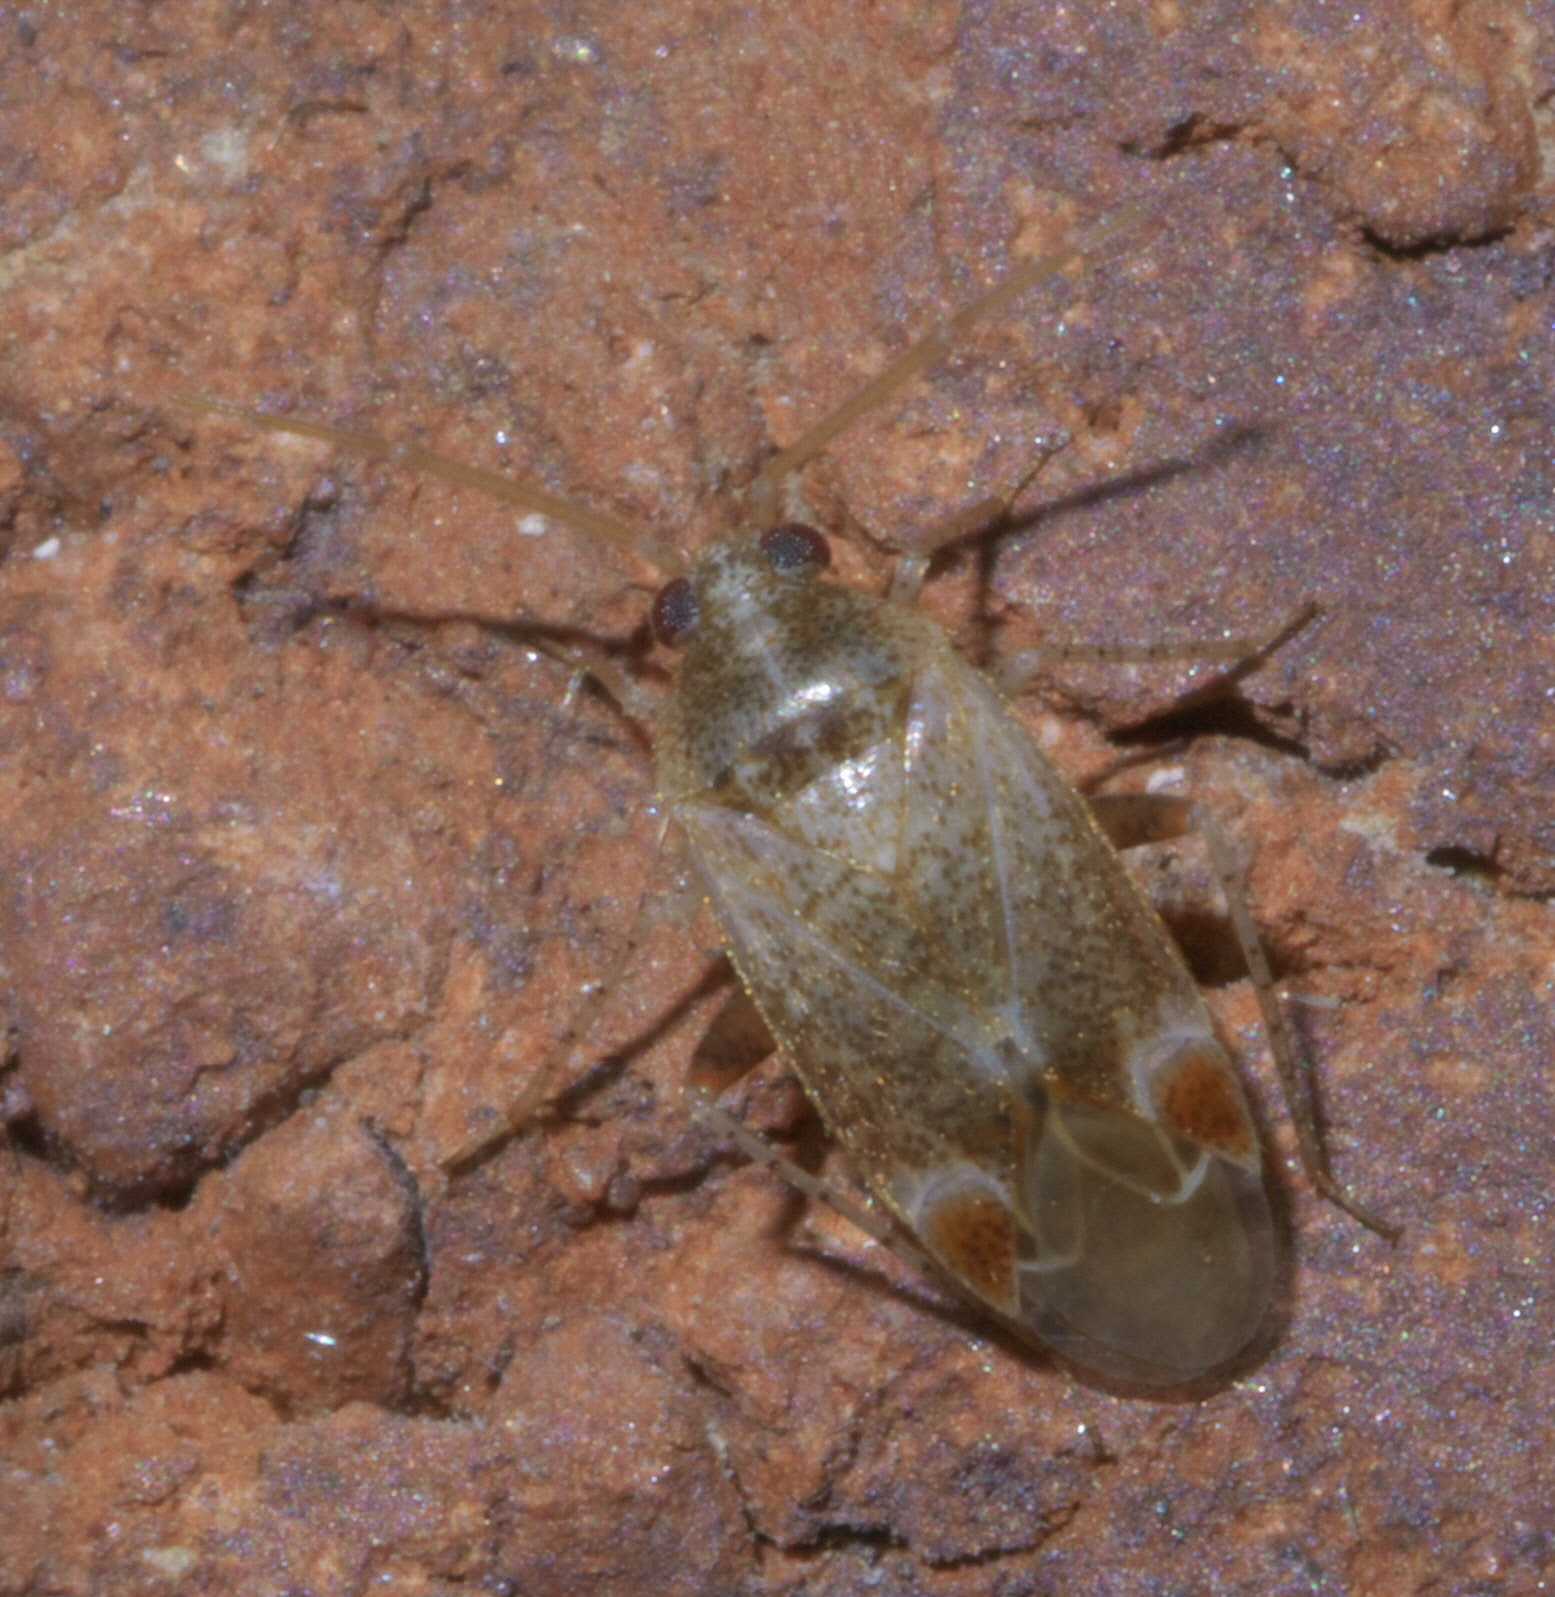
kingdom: Animalia
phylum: Arthropoda
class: Insecta
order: Hemiptera
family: Miridae
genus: Hamatophylus
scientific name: Hamatophylus guttulosus
